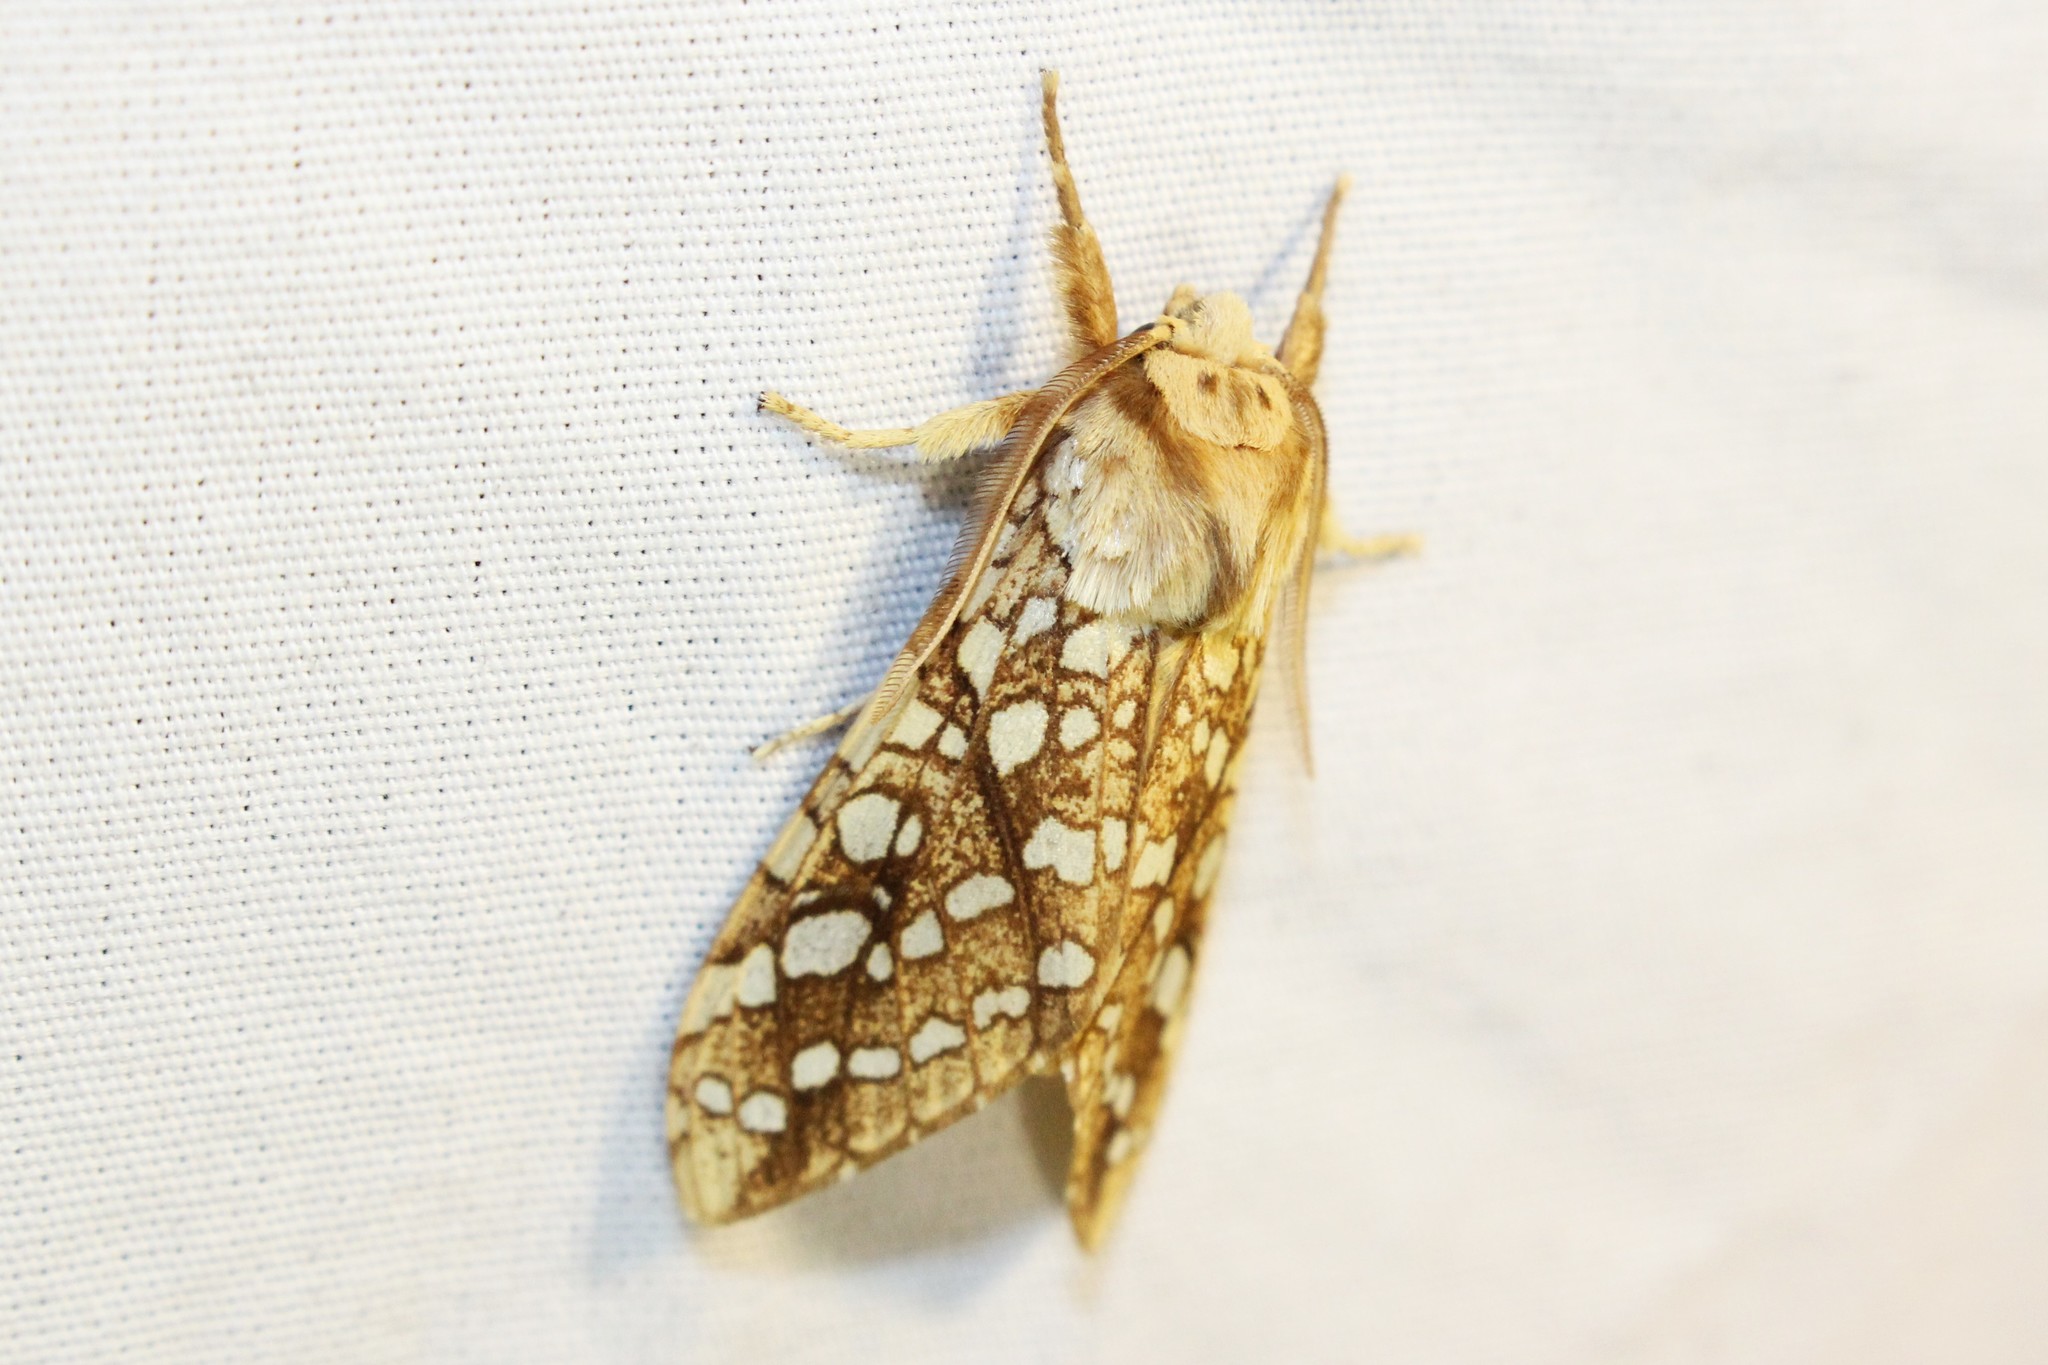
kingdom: Animalia
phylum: Arthropoda
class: Insecta
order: Lepidoptera
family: Erebidae
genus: Lophocampa
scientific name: Lophocampa caryae
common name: Hickory tussock moth
